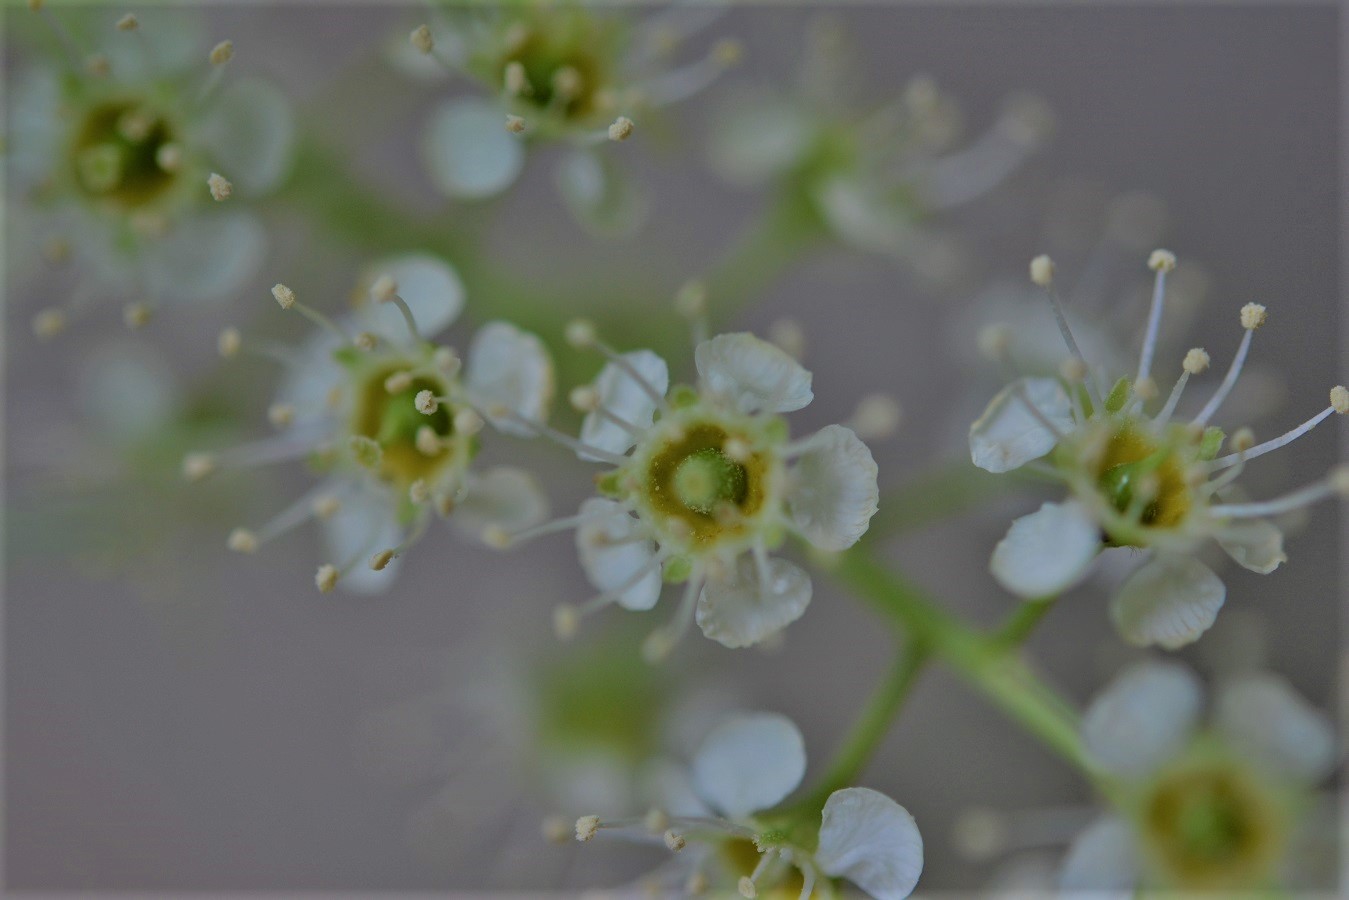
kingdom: Plantae
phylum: Tracheophyta
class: Magnoliopsida
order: Rosales
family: Rosaceae
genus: Prunus
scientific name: Prunus serotina
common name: Black cherry
